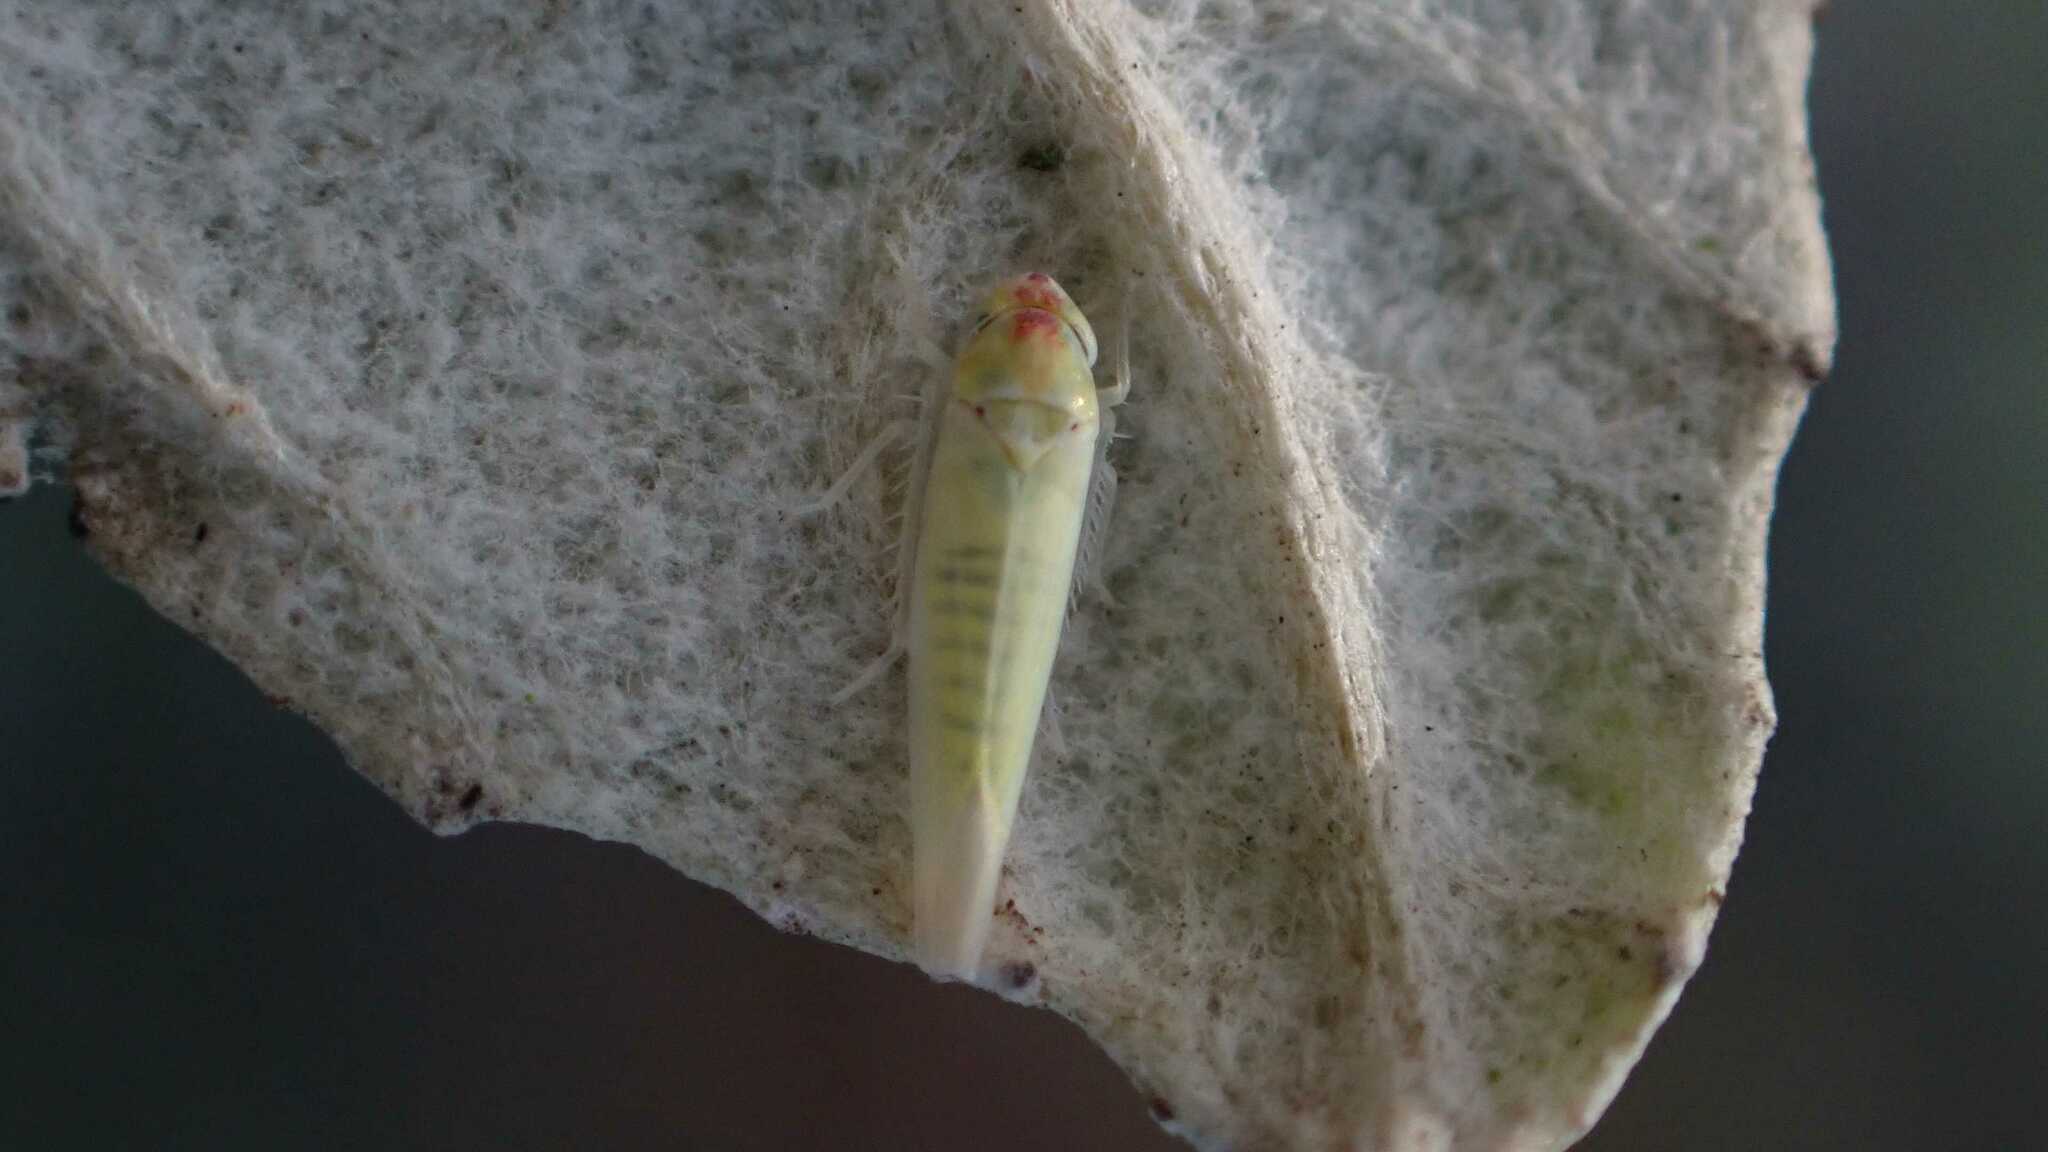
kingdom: Animalia
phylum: Arthropoda
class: Insecta
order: Hemiptera
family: Cicadellidae
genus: Zygina
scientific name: Zygina nivea
